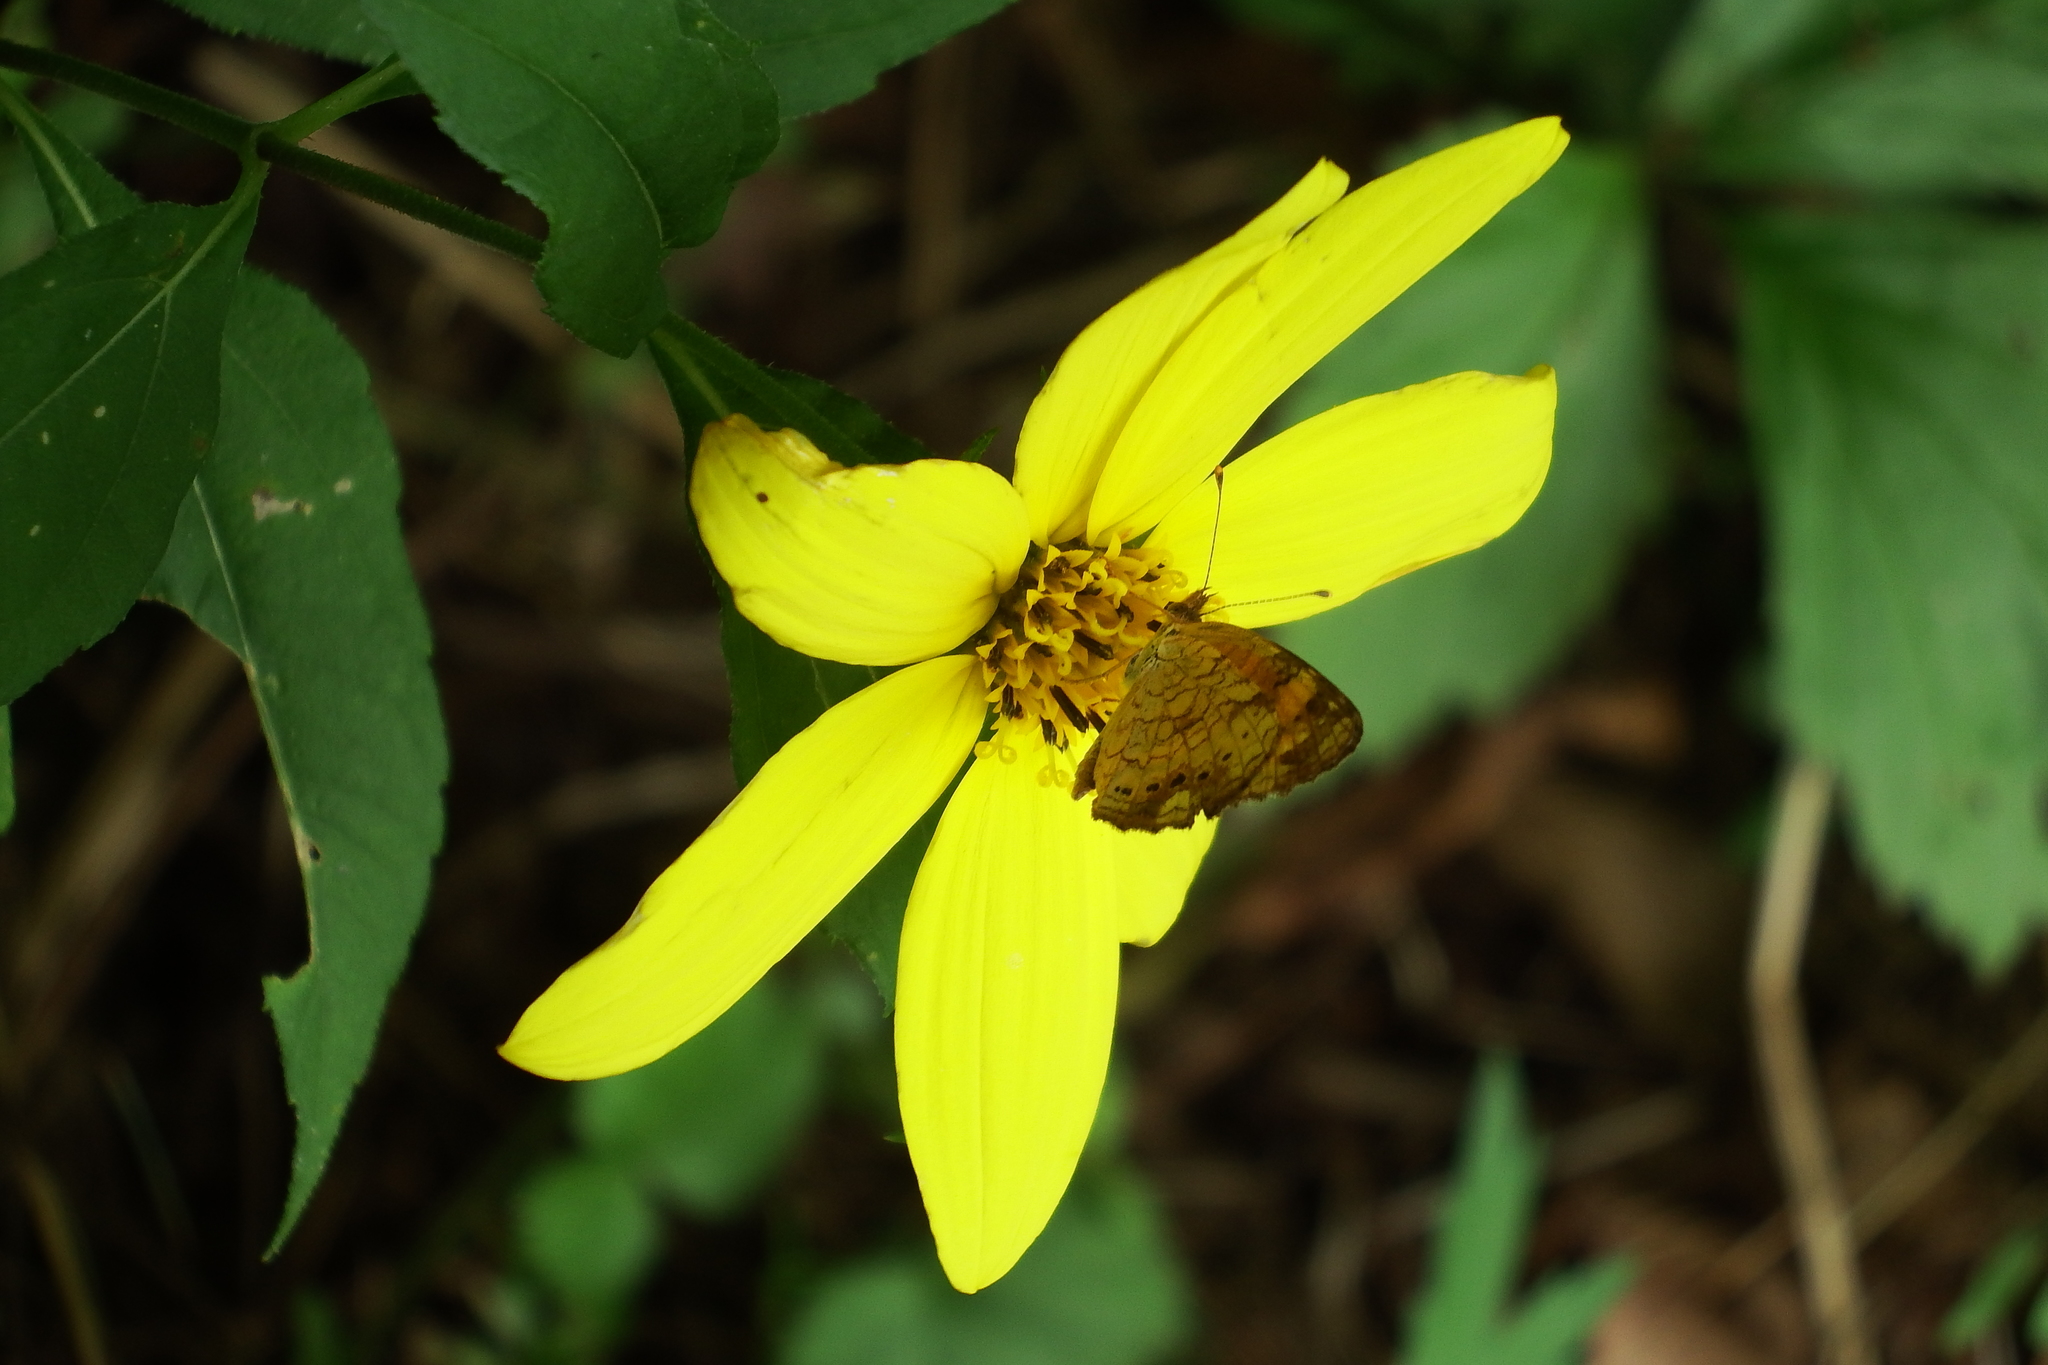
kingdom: Animalia
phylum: Arthropoda
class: Insecta
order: Lepidoptera
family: Nymphalidae
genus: Phyciodes
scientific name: Phyciodes tharos
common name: Pearl crescent
